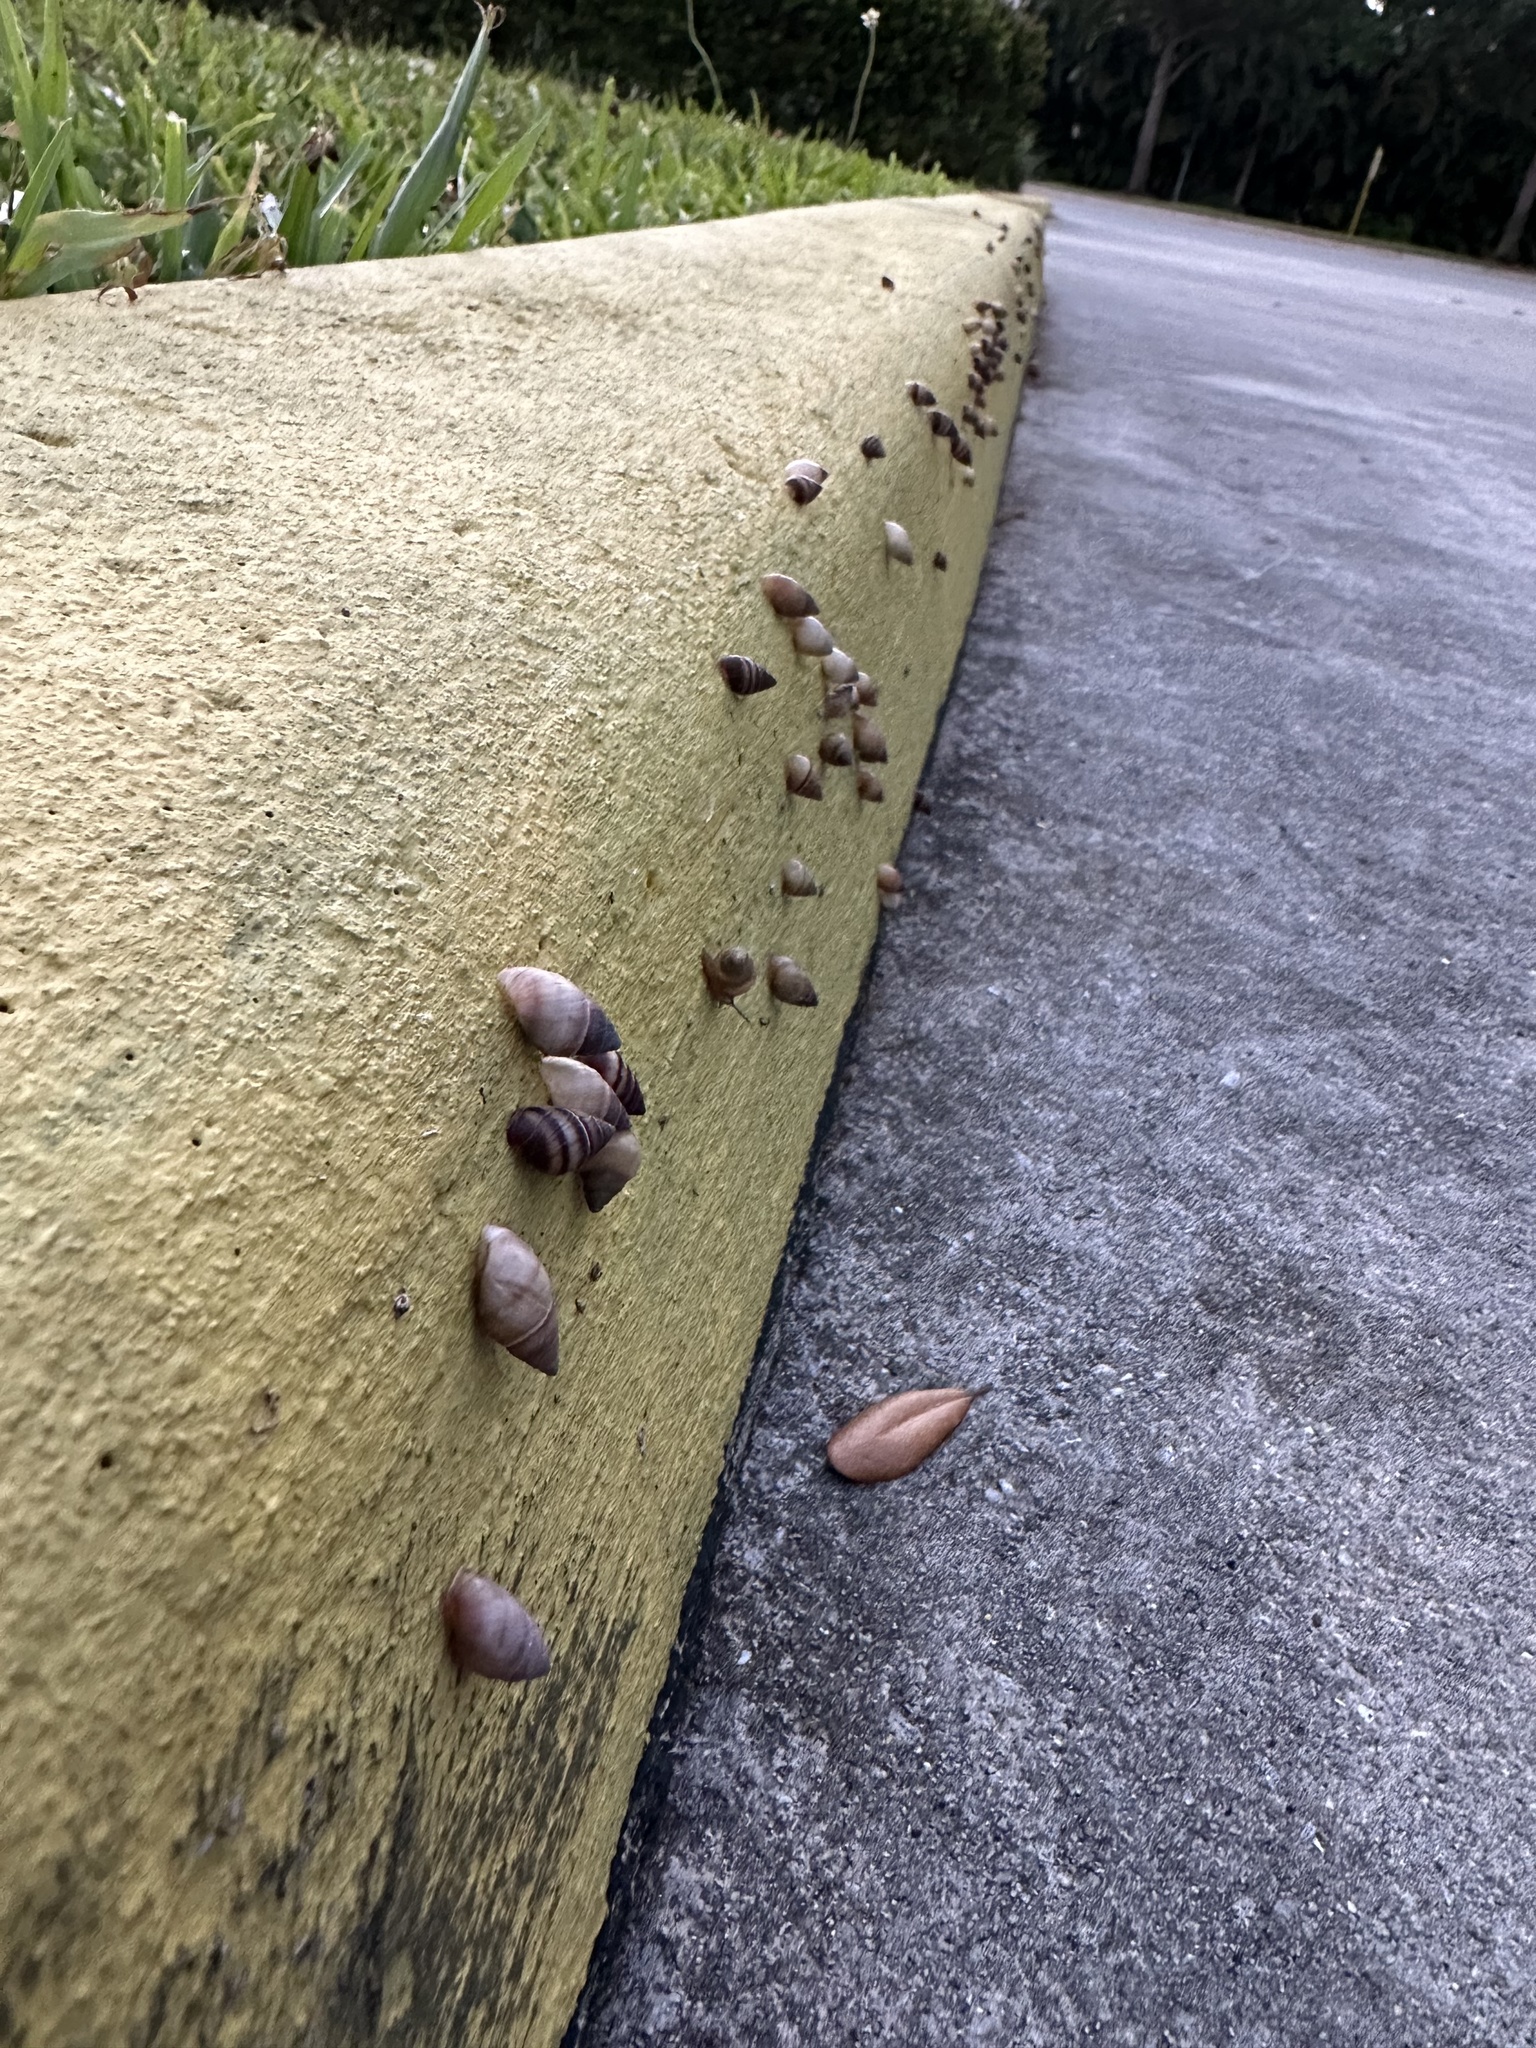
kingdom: Animalia
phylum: Mollusca
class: Gastropoda
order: Stylommatophora
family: Bulimulidae
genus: Bulimulus
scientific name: Bulimulus guadalupensis
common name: West indian bulimulus
